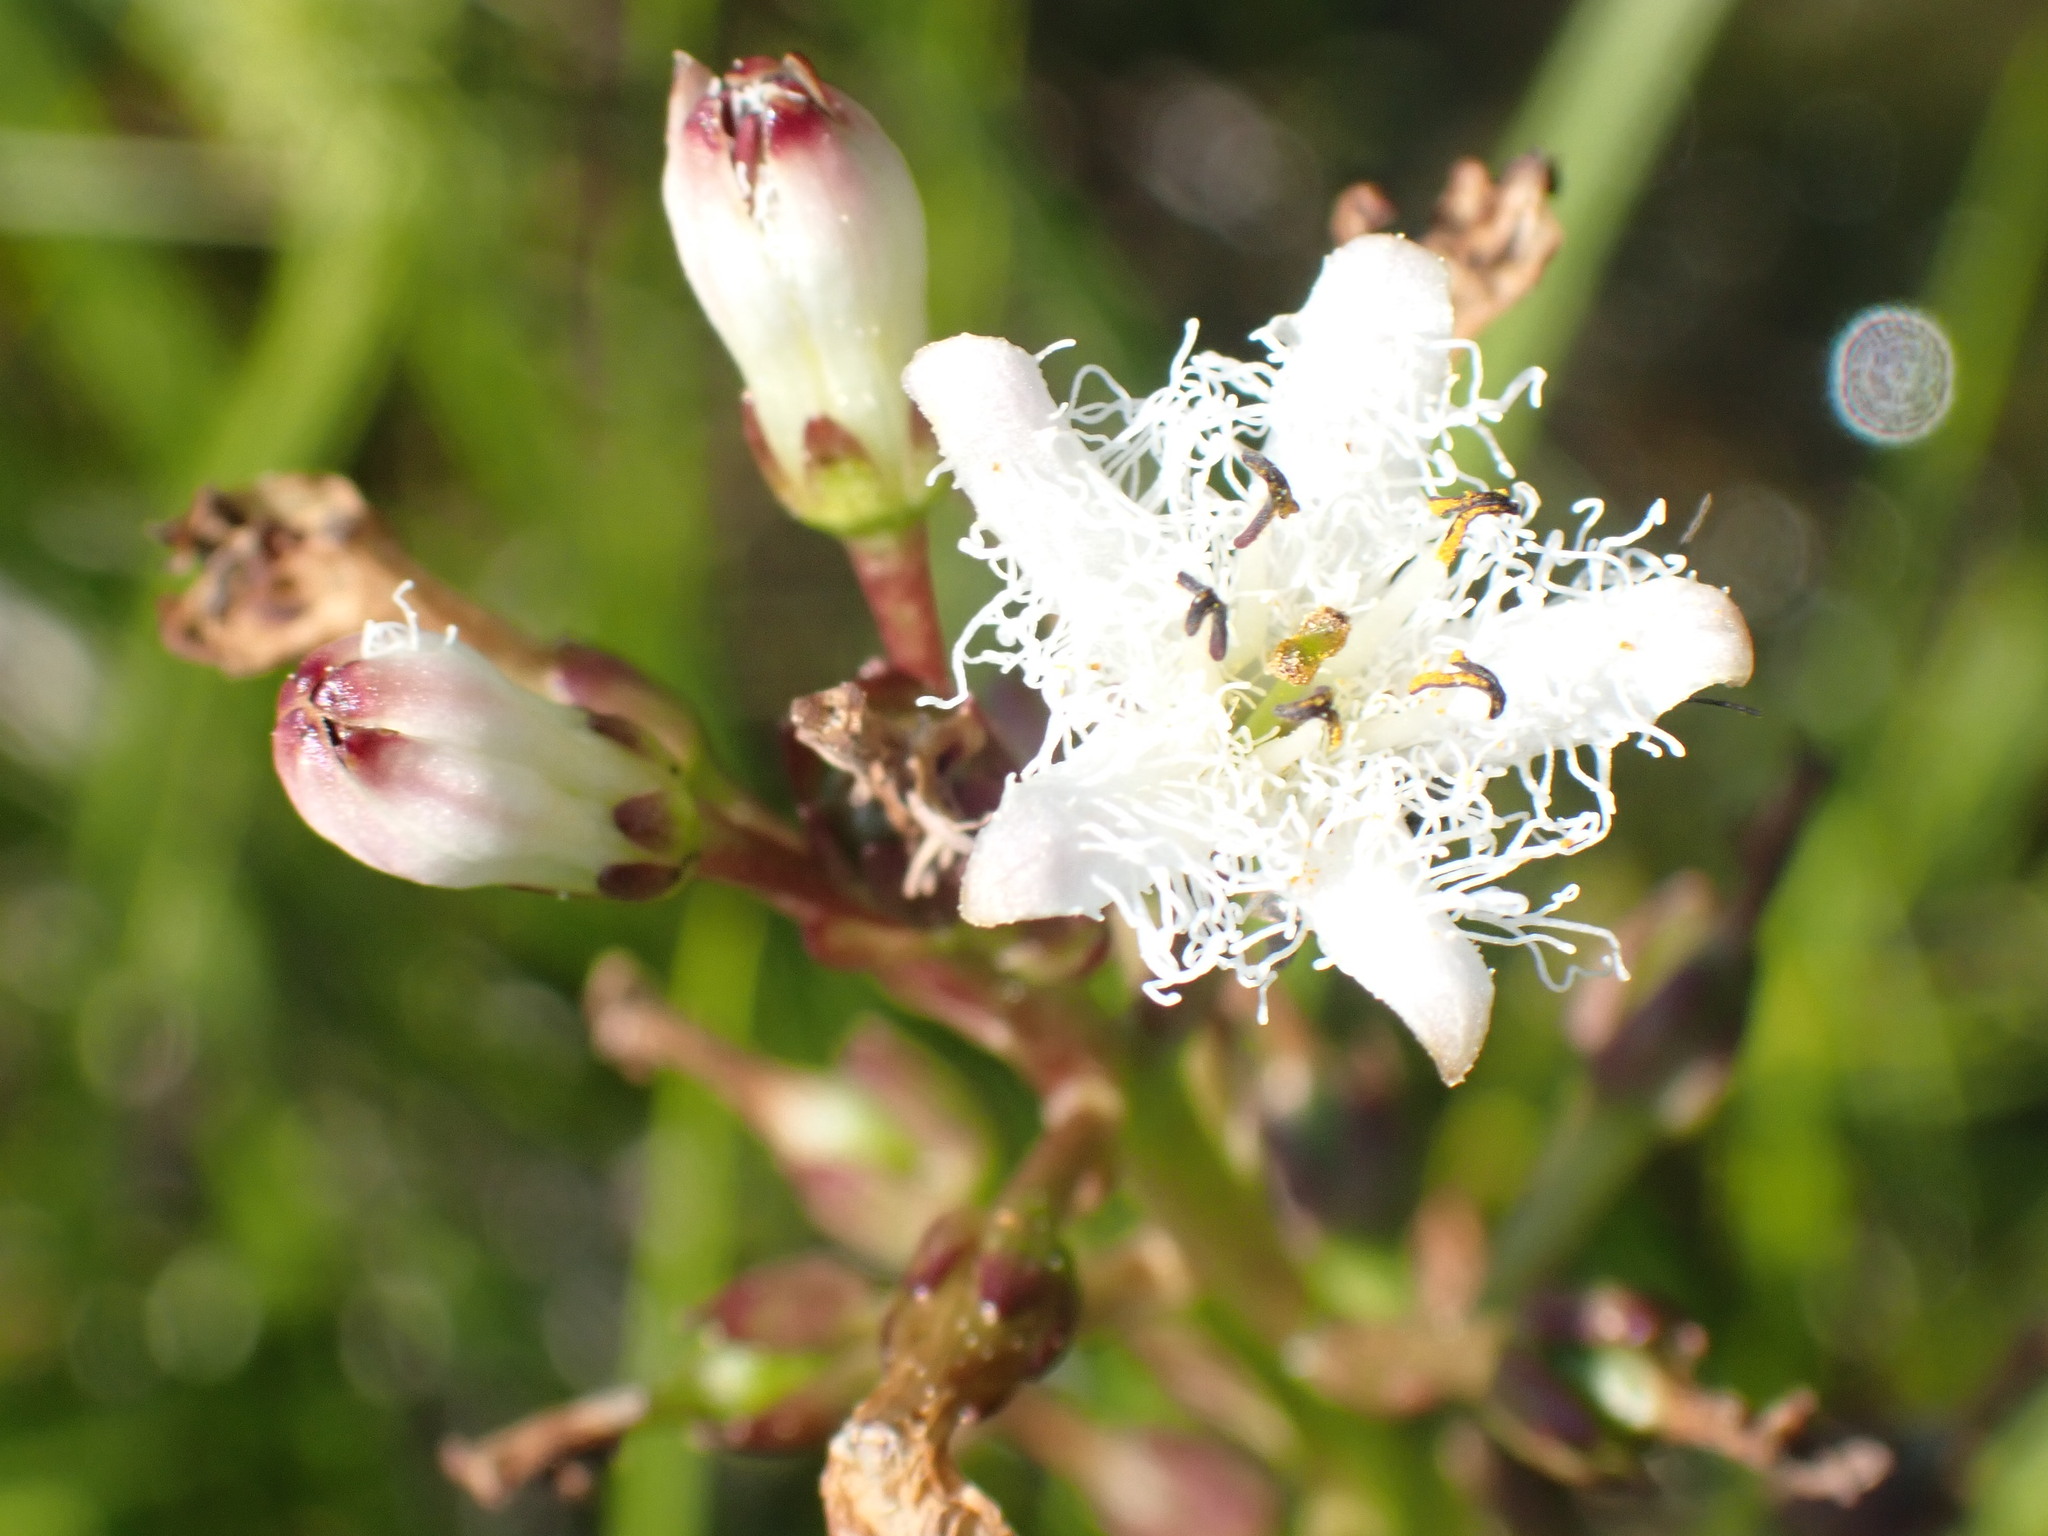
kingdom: Plantae
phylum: Tracheophyta
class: Magnoliopsida
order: Asterales
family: Menyanthaceae
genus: Menyanthes
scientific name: Menyanthes trifoliata
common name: Bogbean
